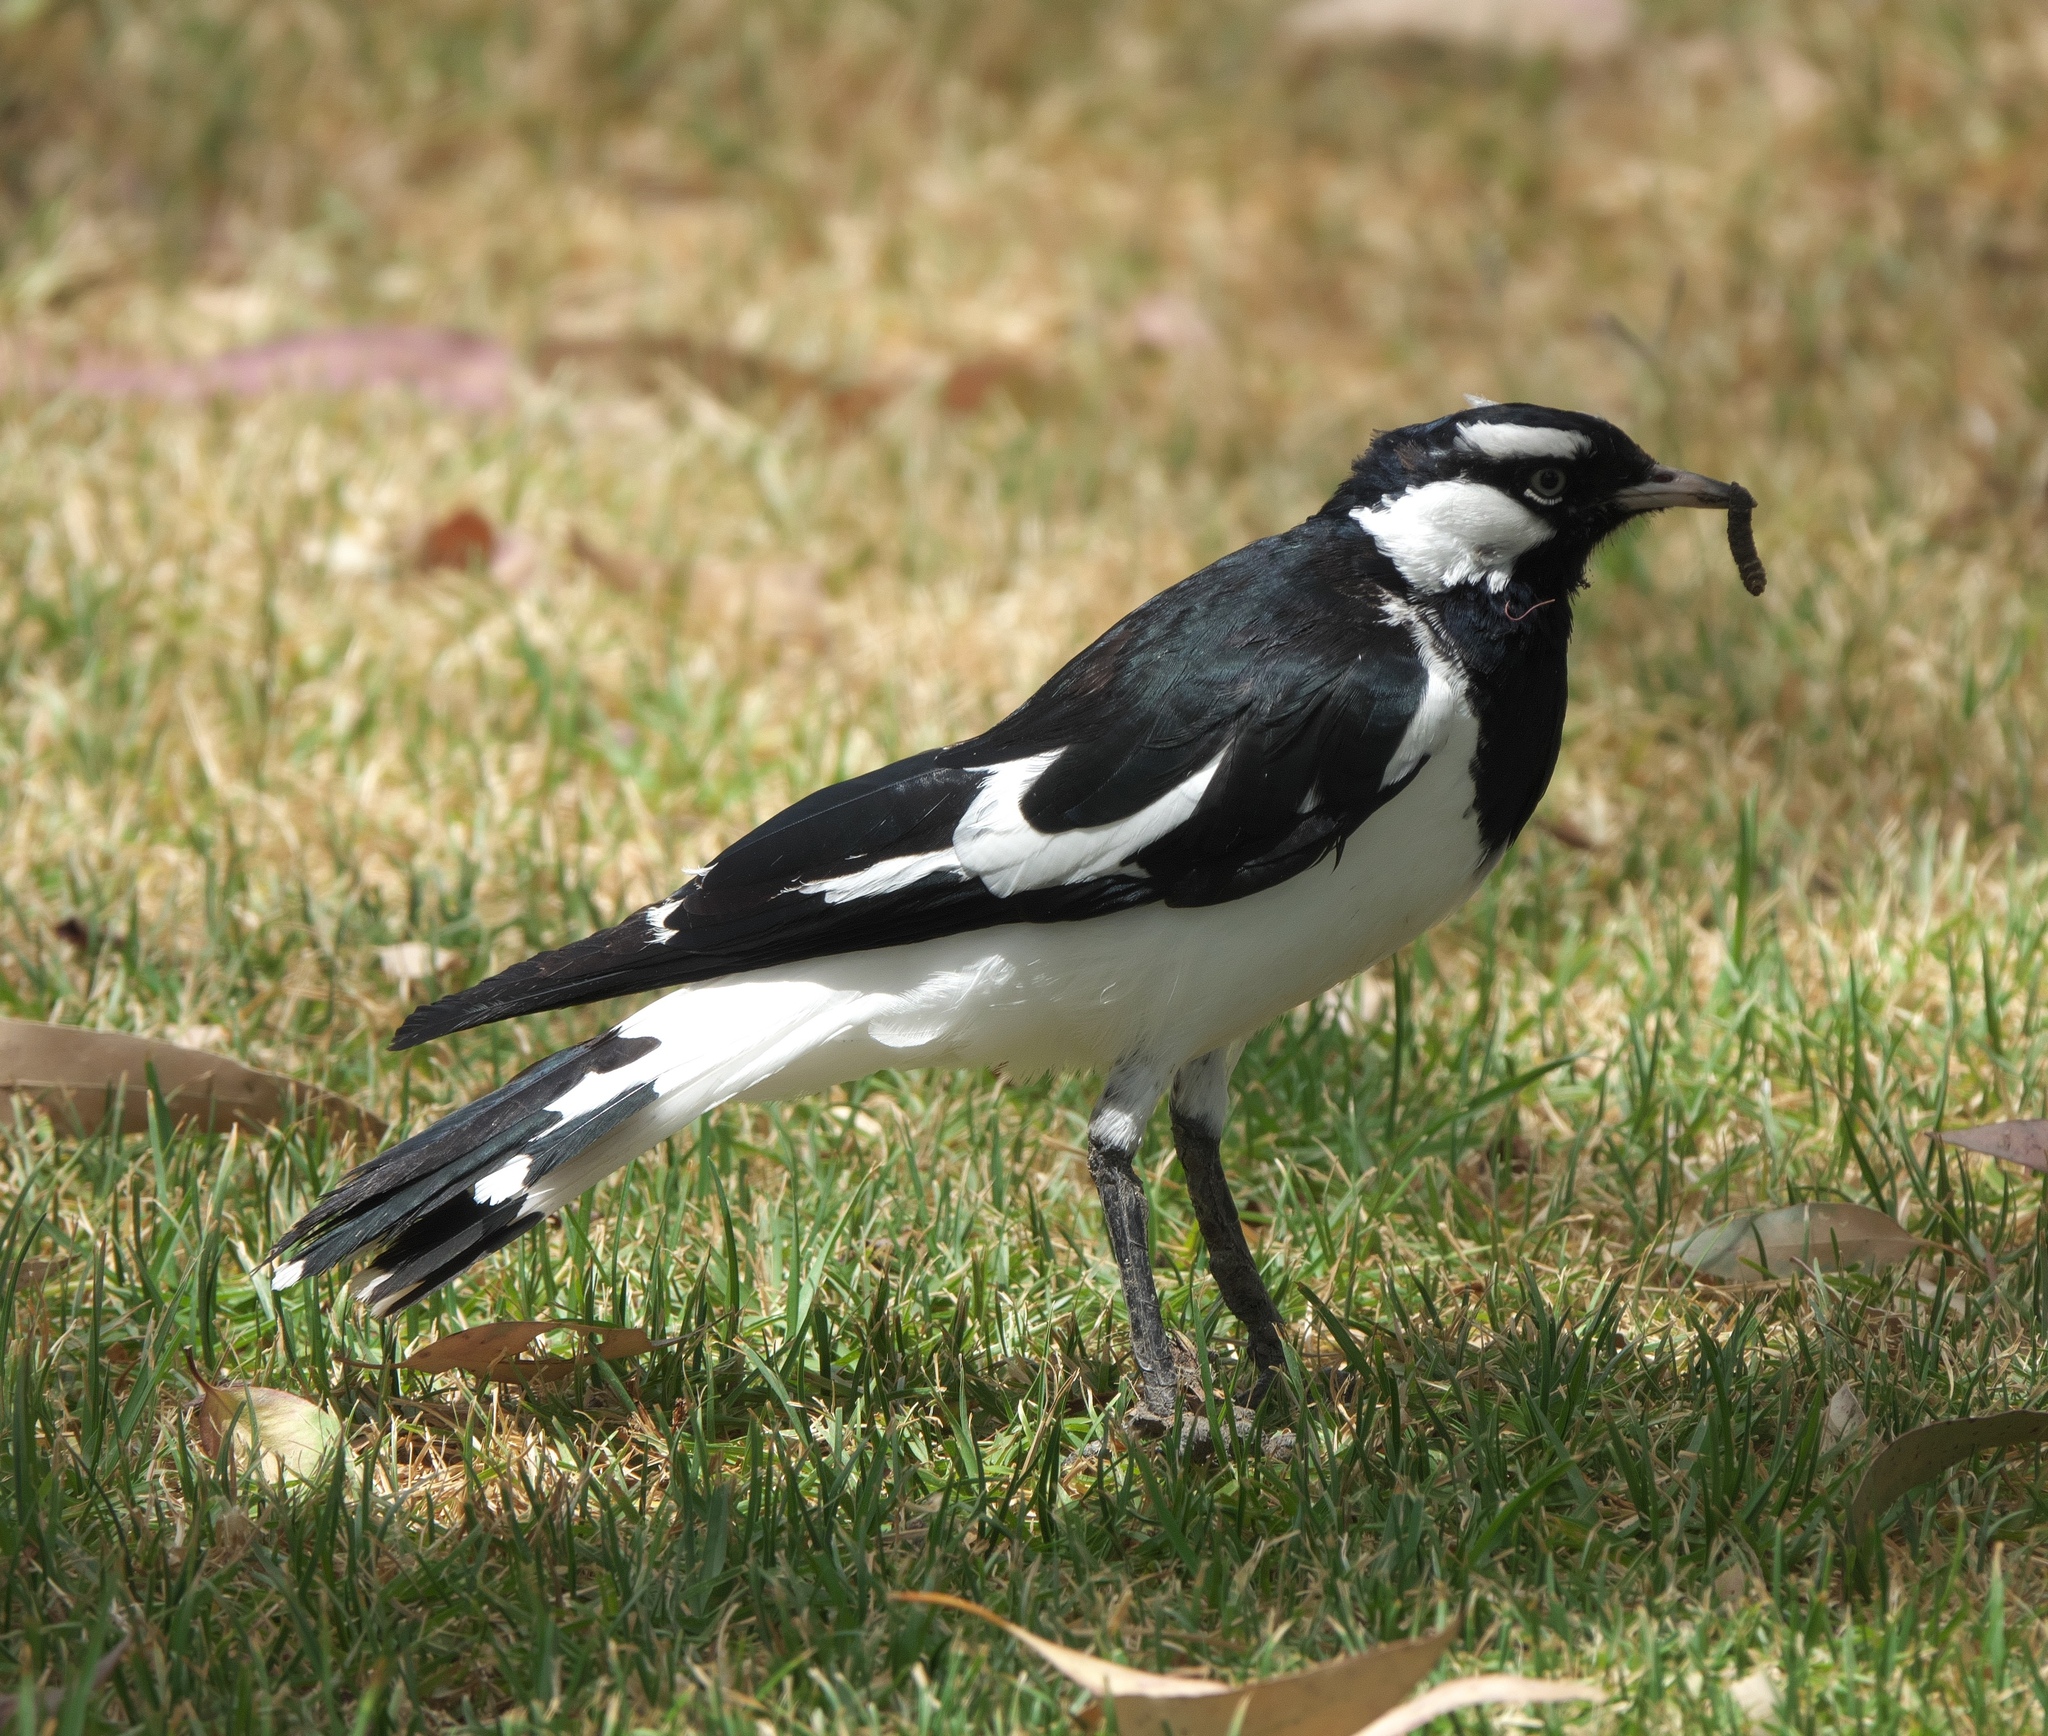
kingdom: Animalia
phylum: Chordata
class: Aves
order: Passeriformes
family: Monarchidae
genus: Grallina
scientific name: Grallina cyanoleuca
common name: Magpie-lark
